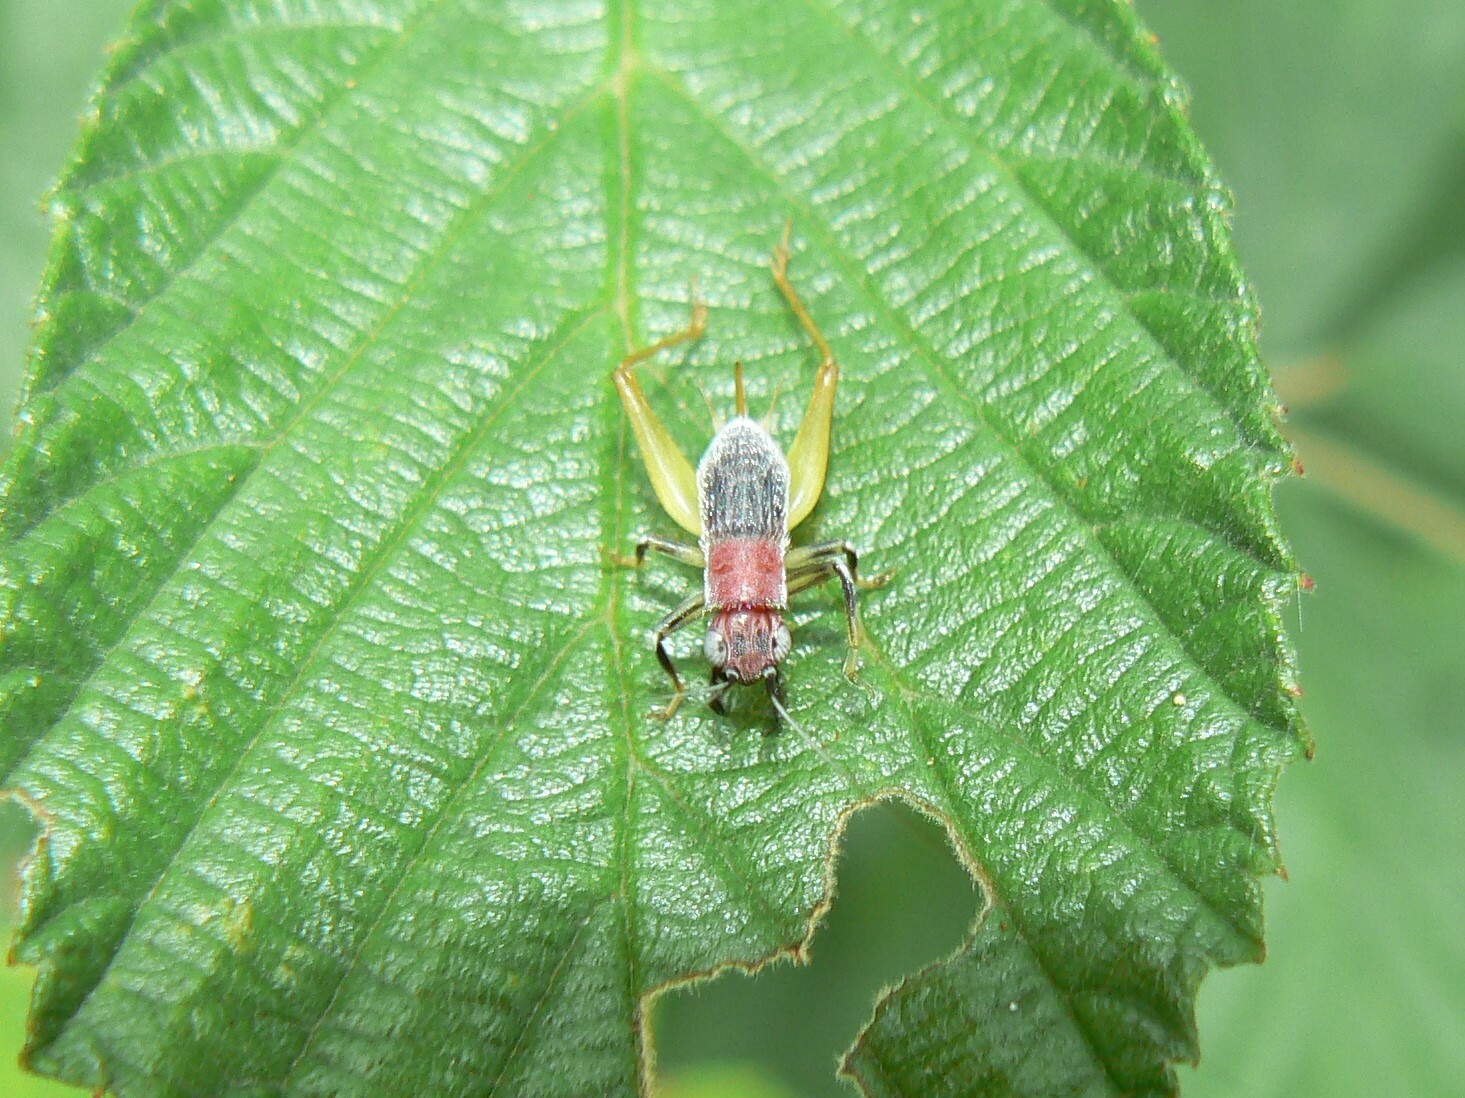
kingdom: Animalia
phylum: Arthropoda
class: Insecta
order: Orthoptera
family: Trigonidiidae
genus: Phyllopalpus
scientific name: Phyllopalpus pulchellus
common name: Handsome trig
